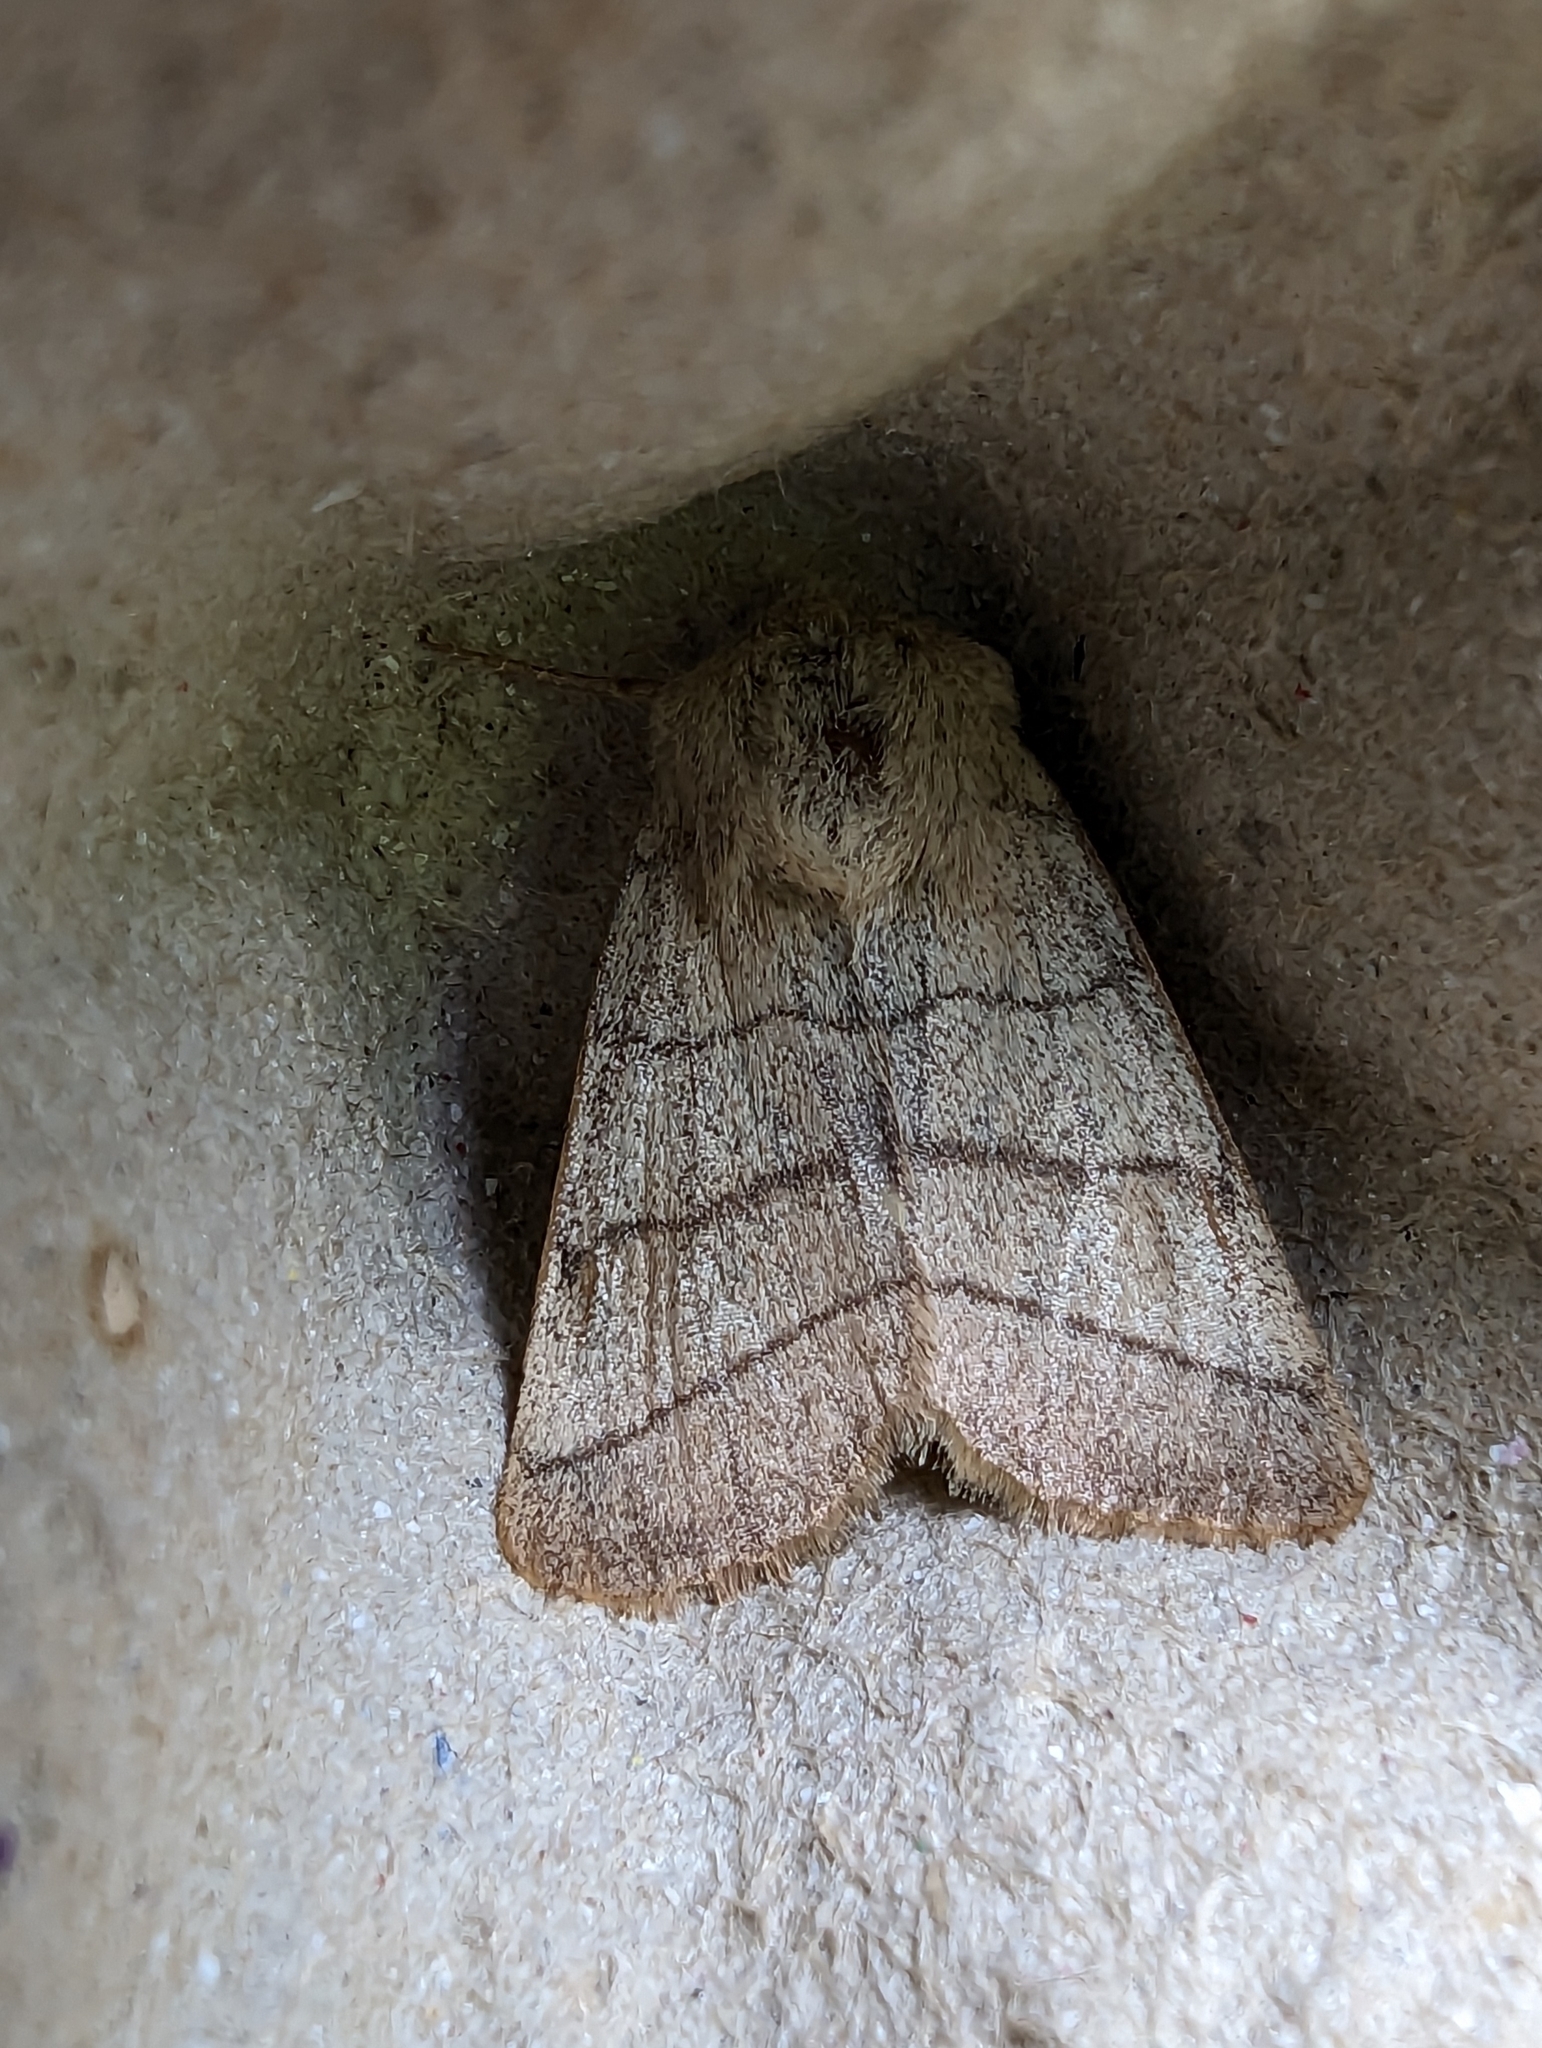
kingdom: Animalia
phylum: Arthropoda
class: Insecta
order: Lepidoptera
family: Noctuidae
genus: Charanyca
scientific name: Charanyca trigrammica
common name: Treble lines
